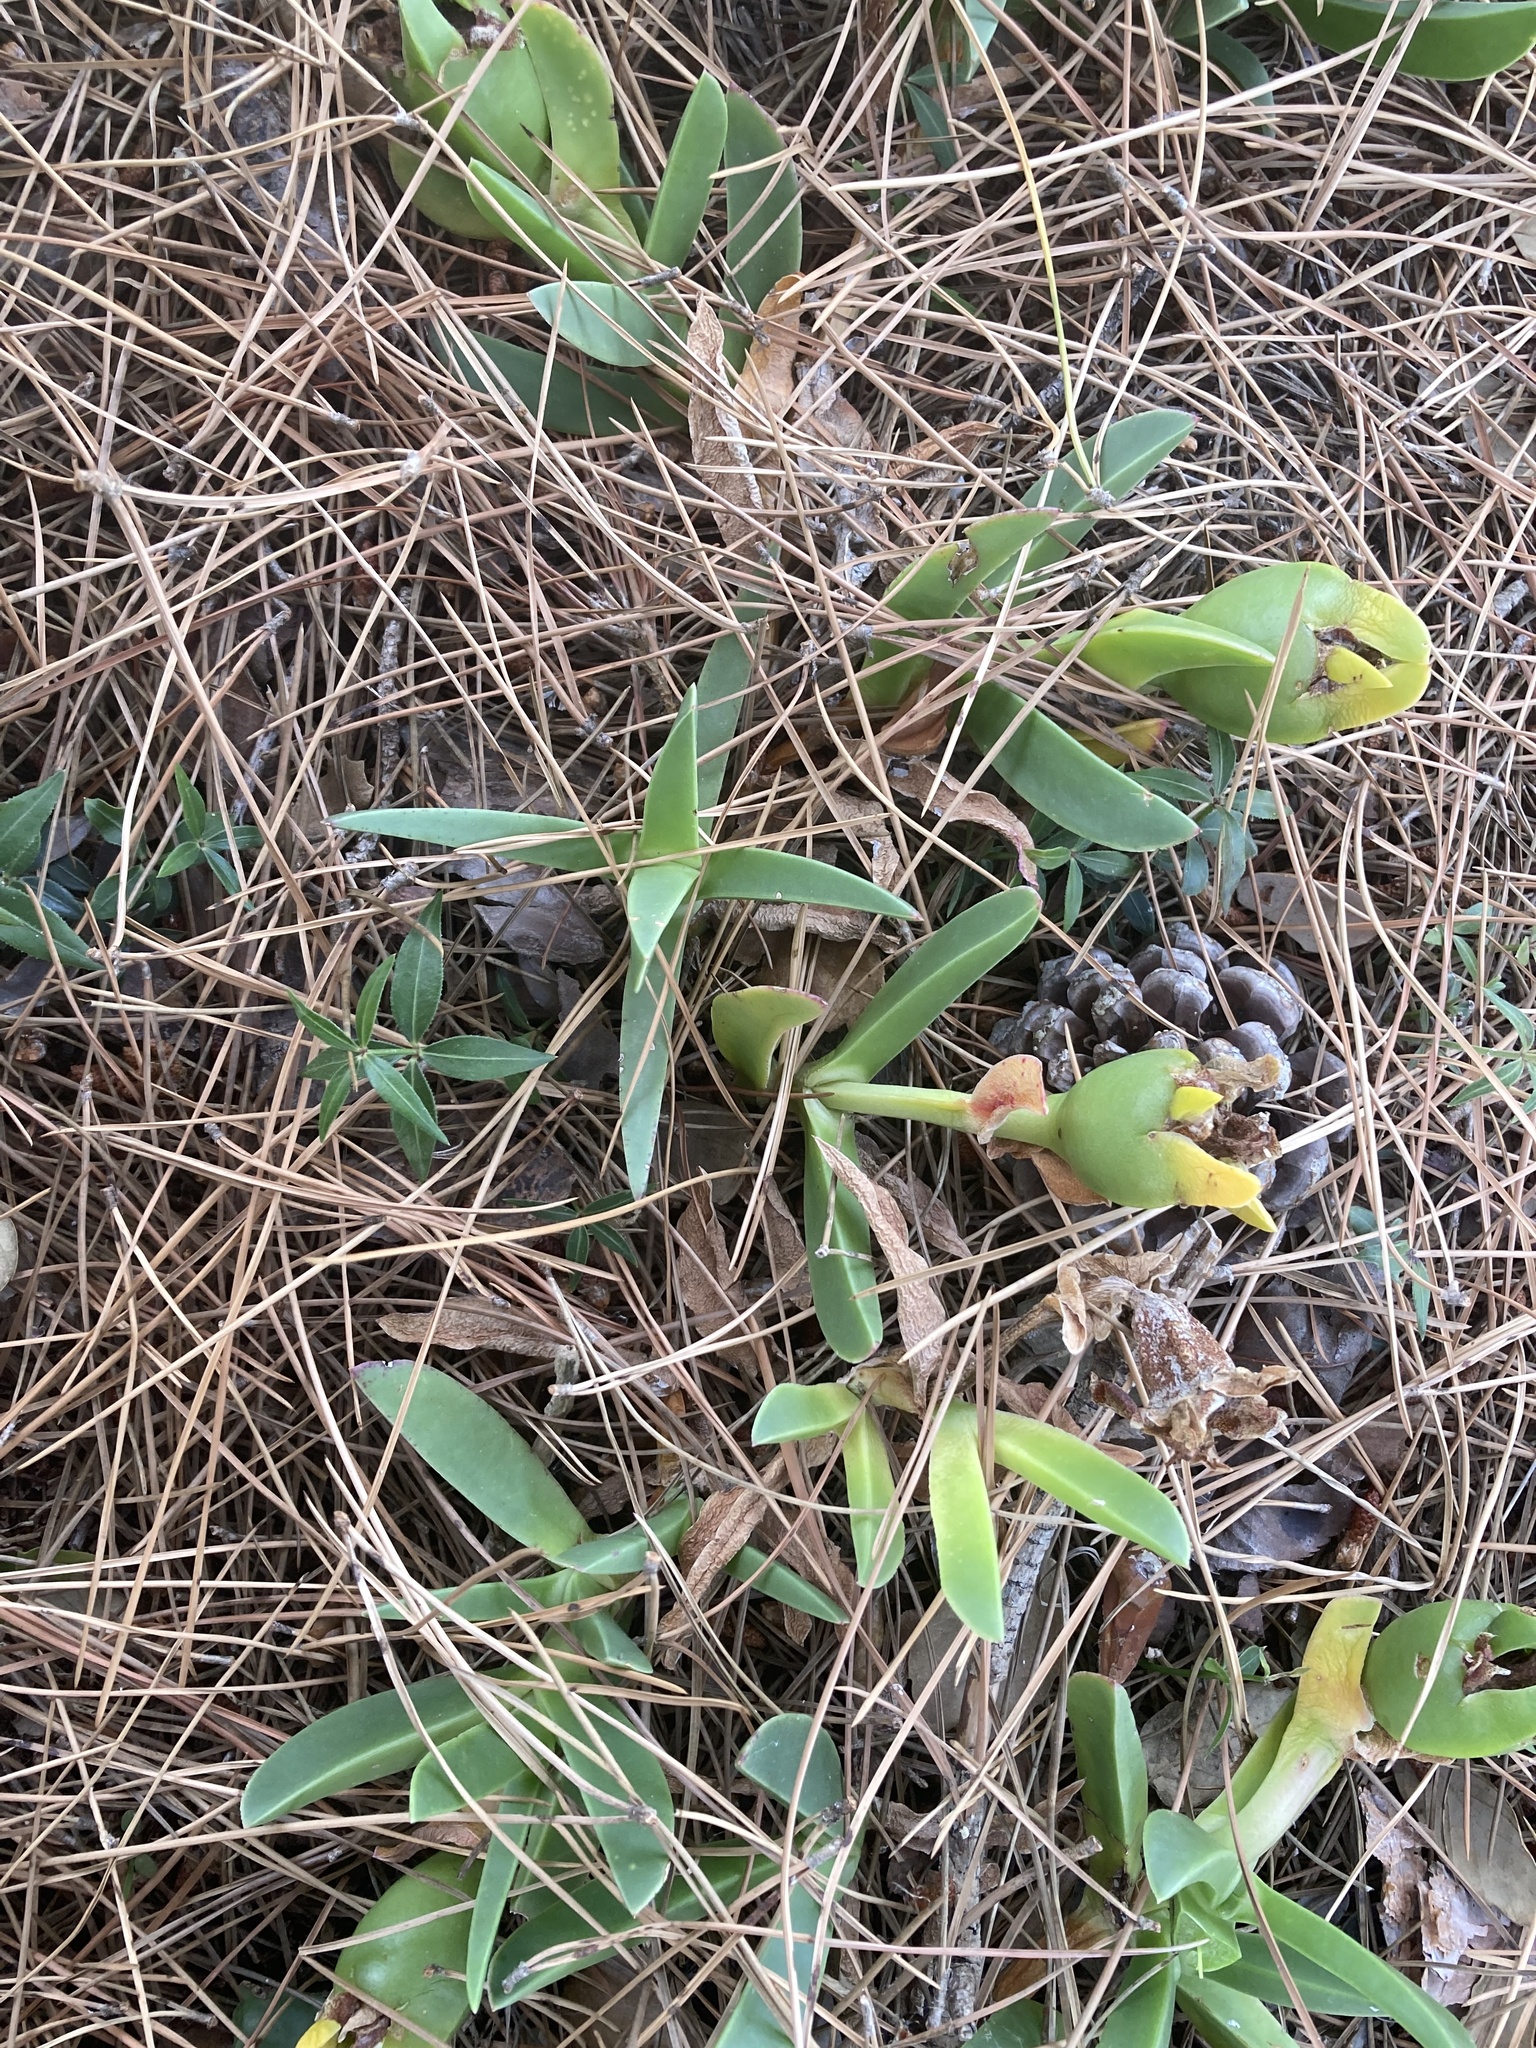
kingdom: Plantae
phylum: Tracheophyta
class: Magnoliopsida
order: Caryophyllales
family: Aizoaceae
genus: Carpobrotus
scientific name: Carpobrotus acinaciformis
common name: Sally-my-handsome
